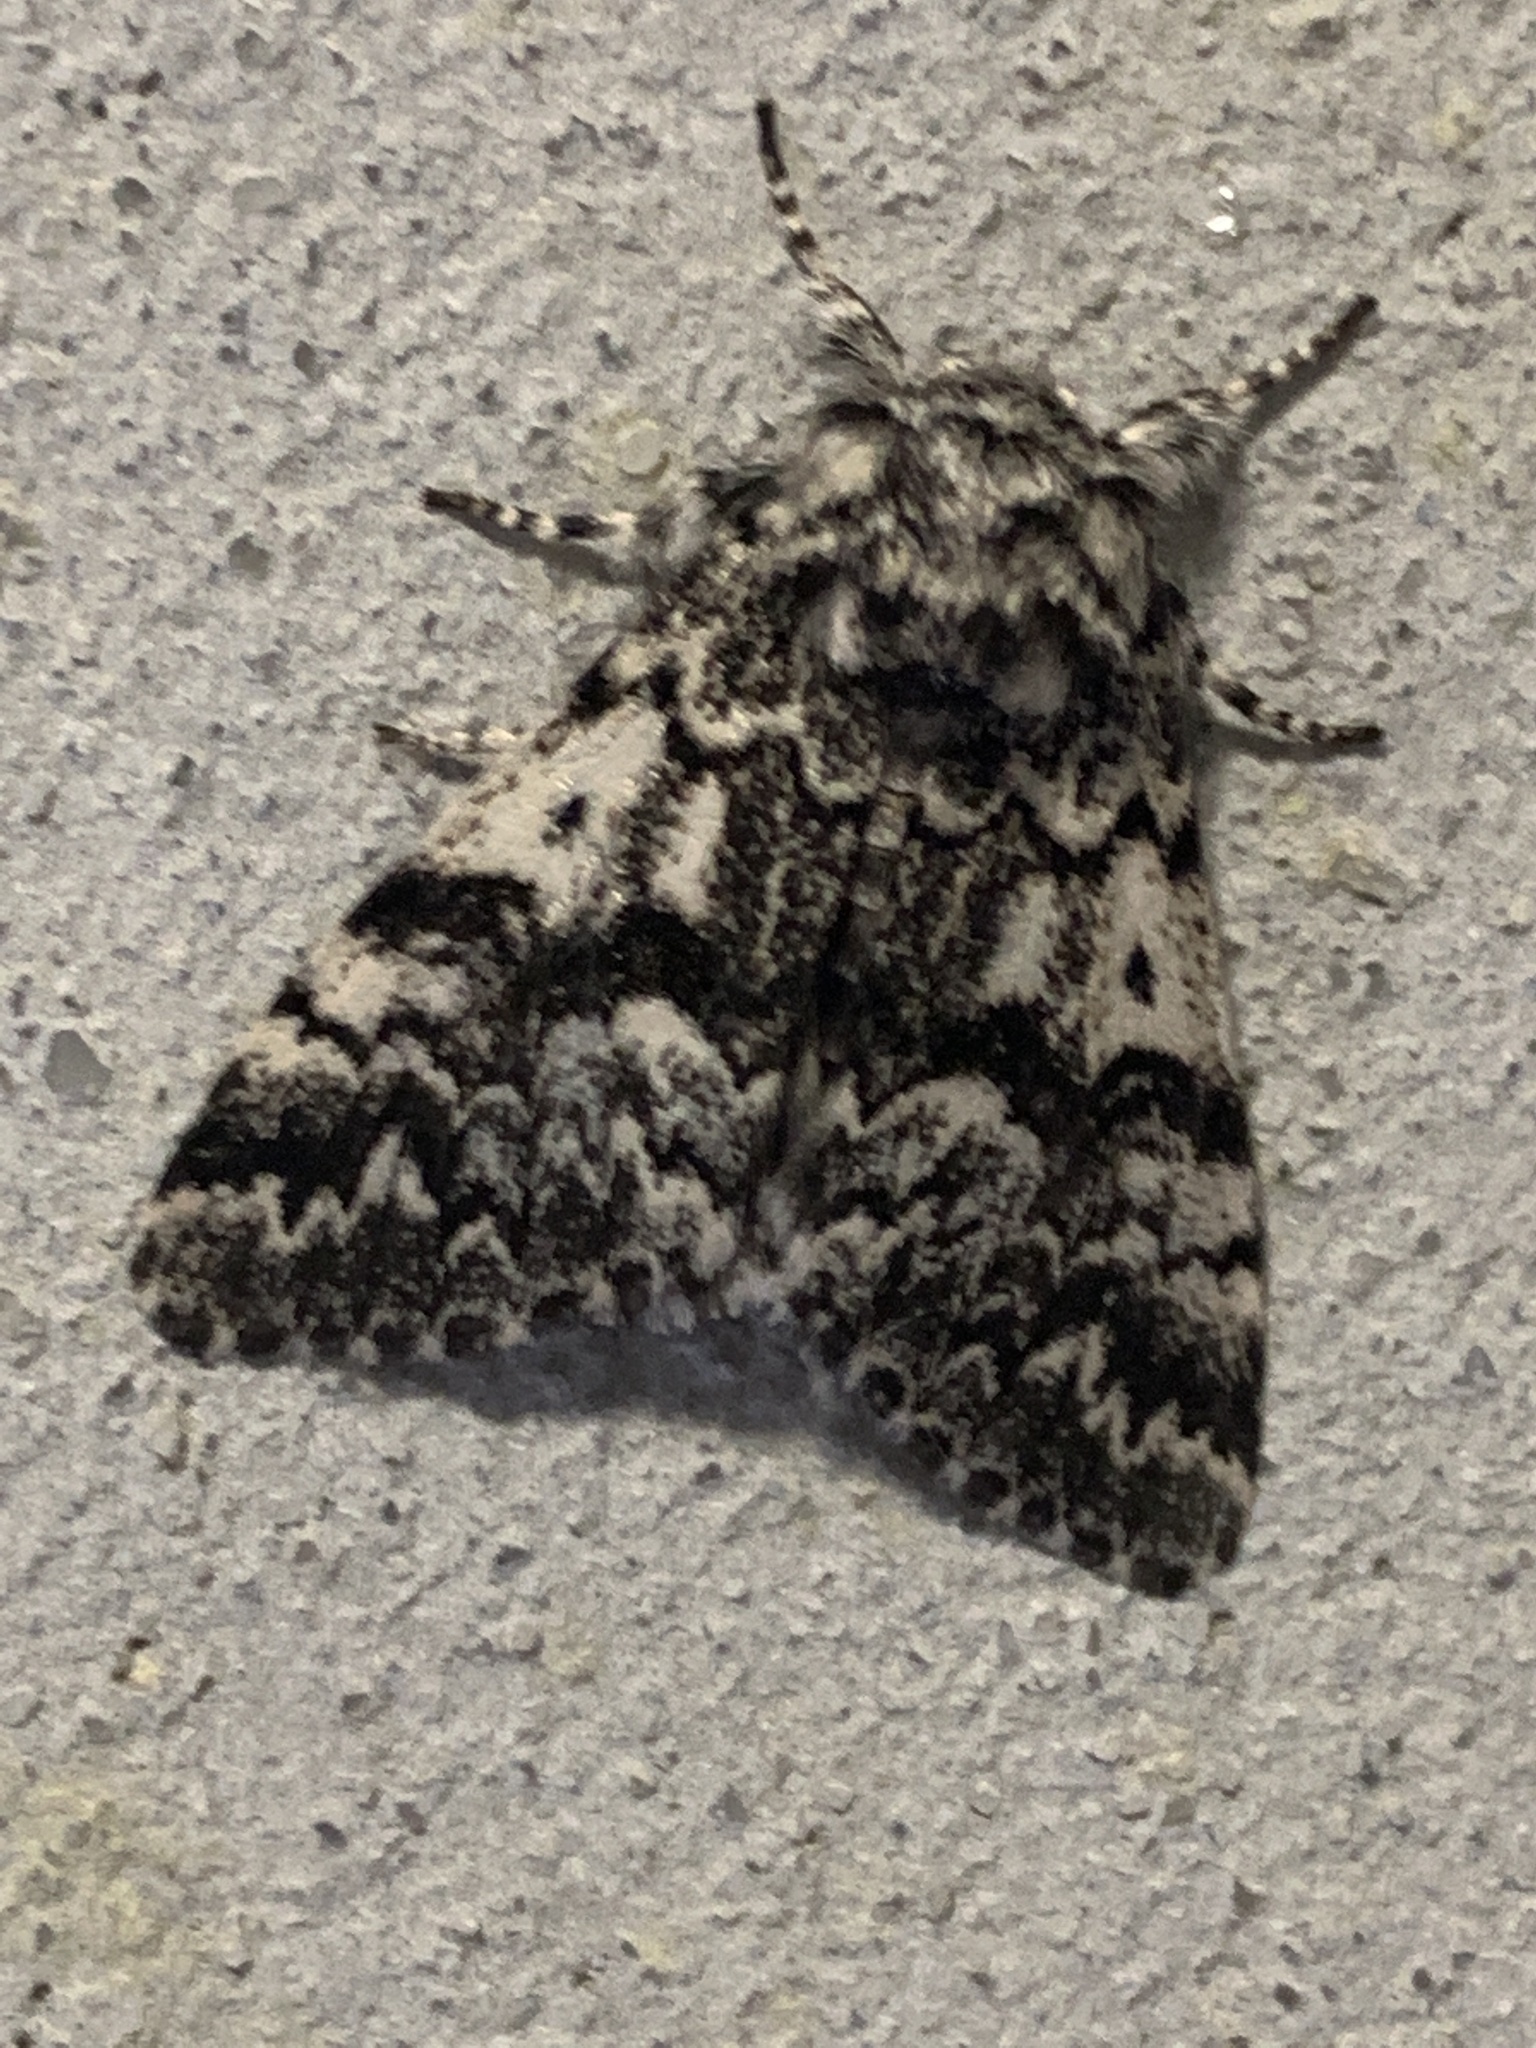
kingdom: Animalia
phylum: Arthropoda
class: Insecta
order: Lepidoptera
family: Noctuidae
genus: Panthea
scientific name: Panthea acronyctoides
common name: Black zigzag moth
